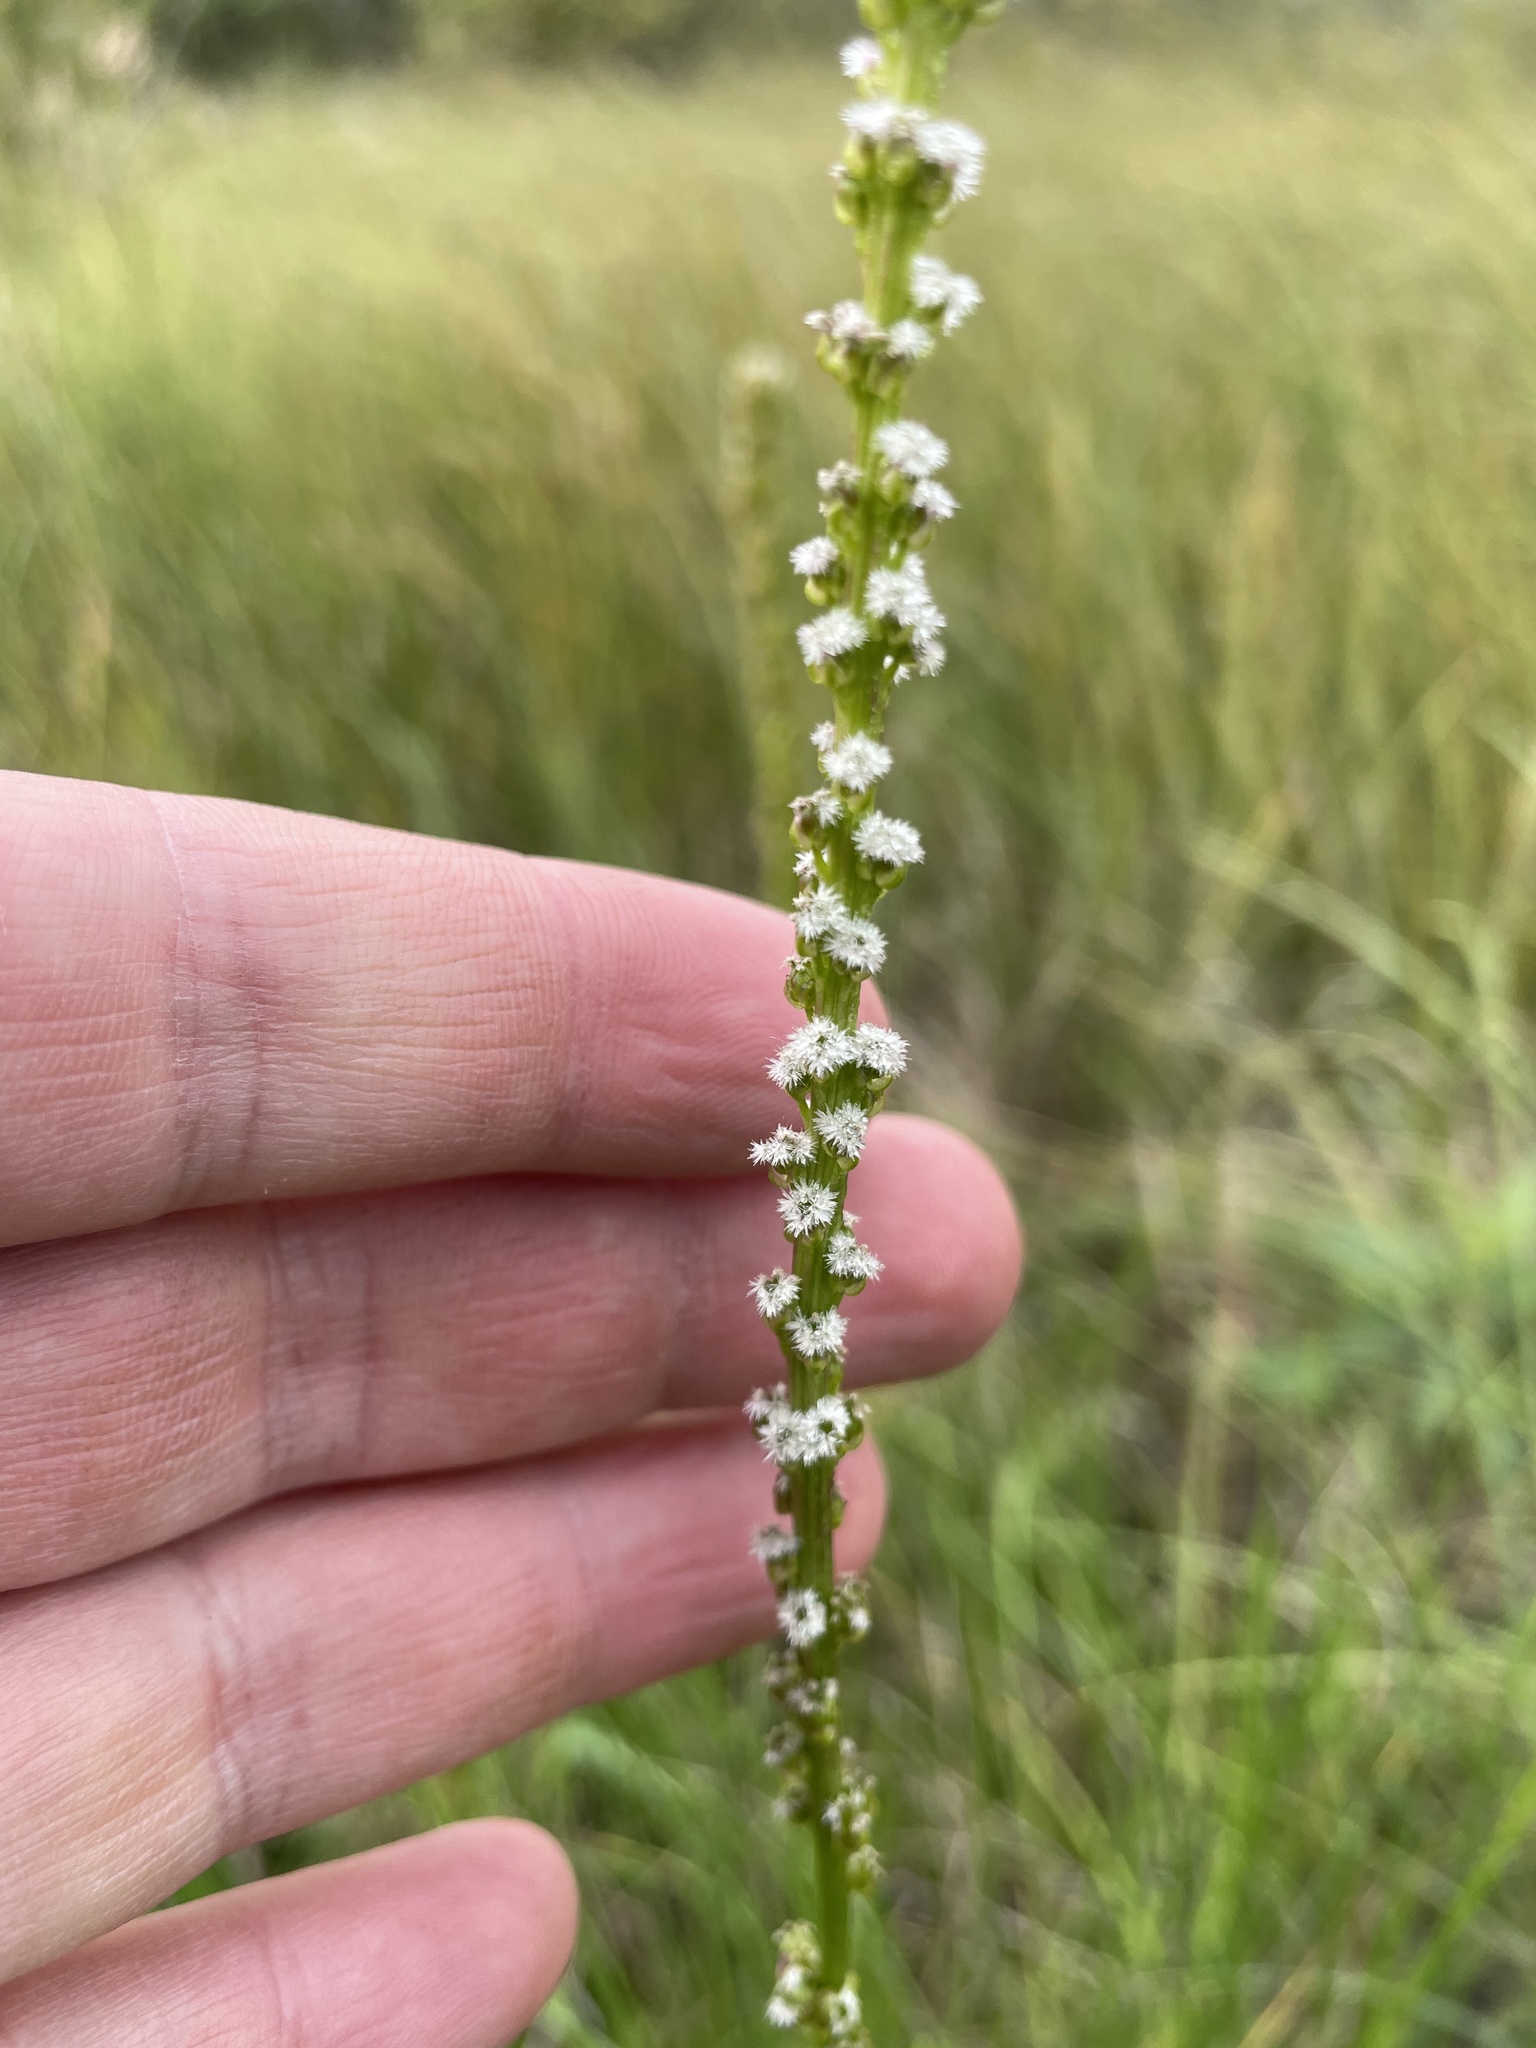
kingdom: Plantae
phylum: Tracheophyta
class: Liliopsida
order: Alismatales
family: Juncaginaceae
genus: Triglochin
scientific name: Triglochin maritima
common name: Sea arrowgrass
